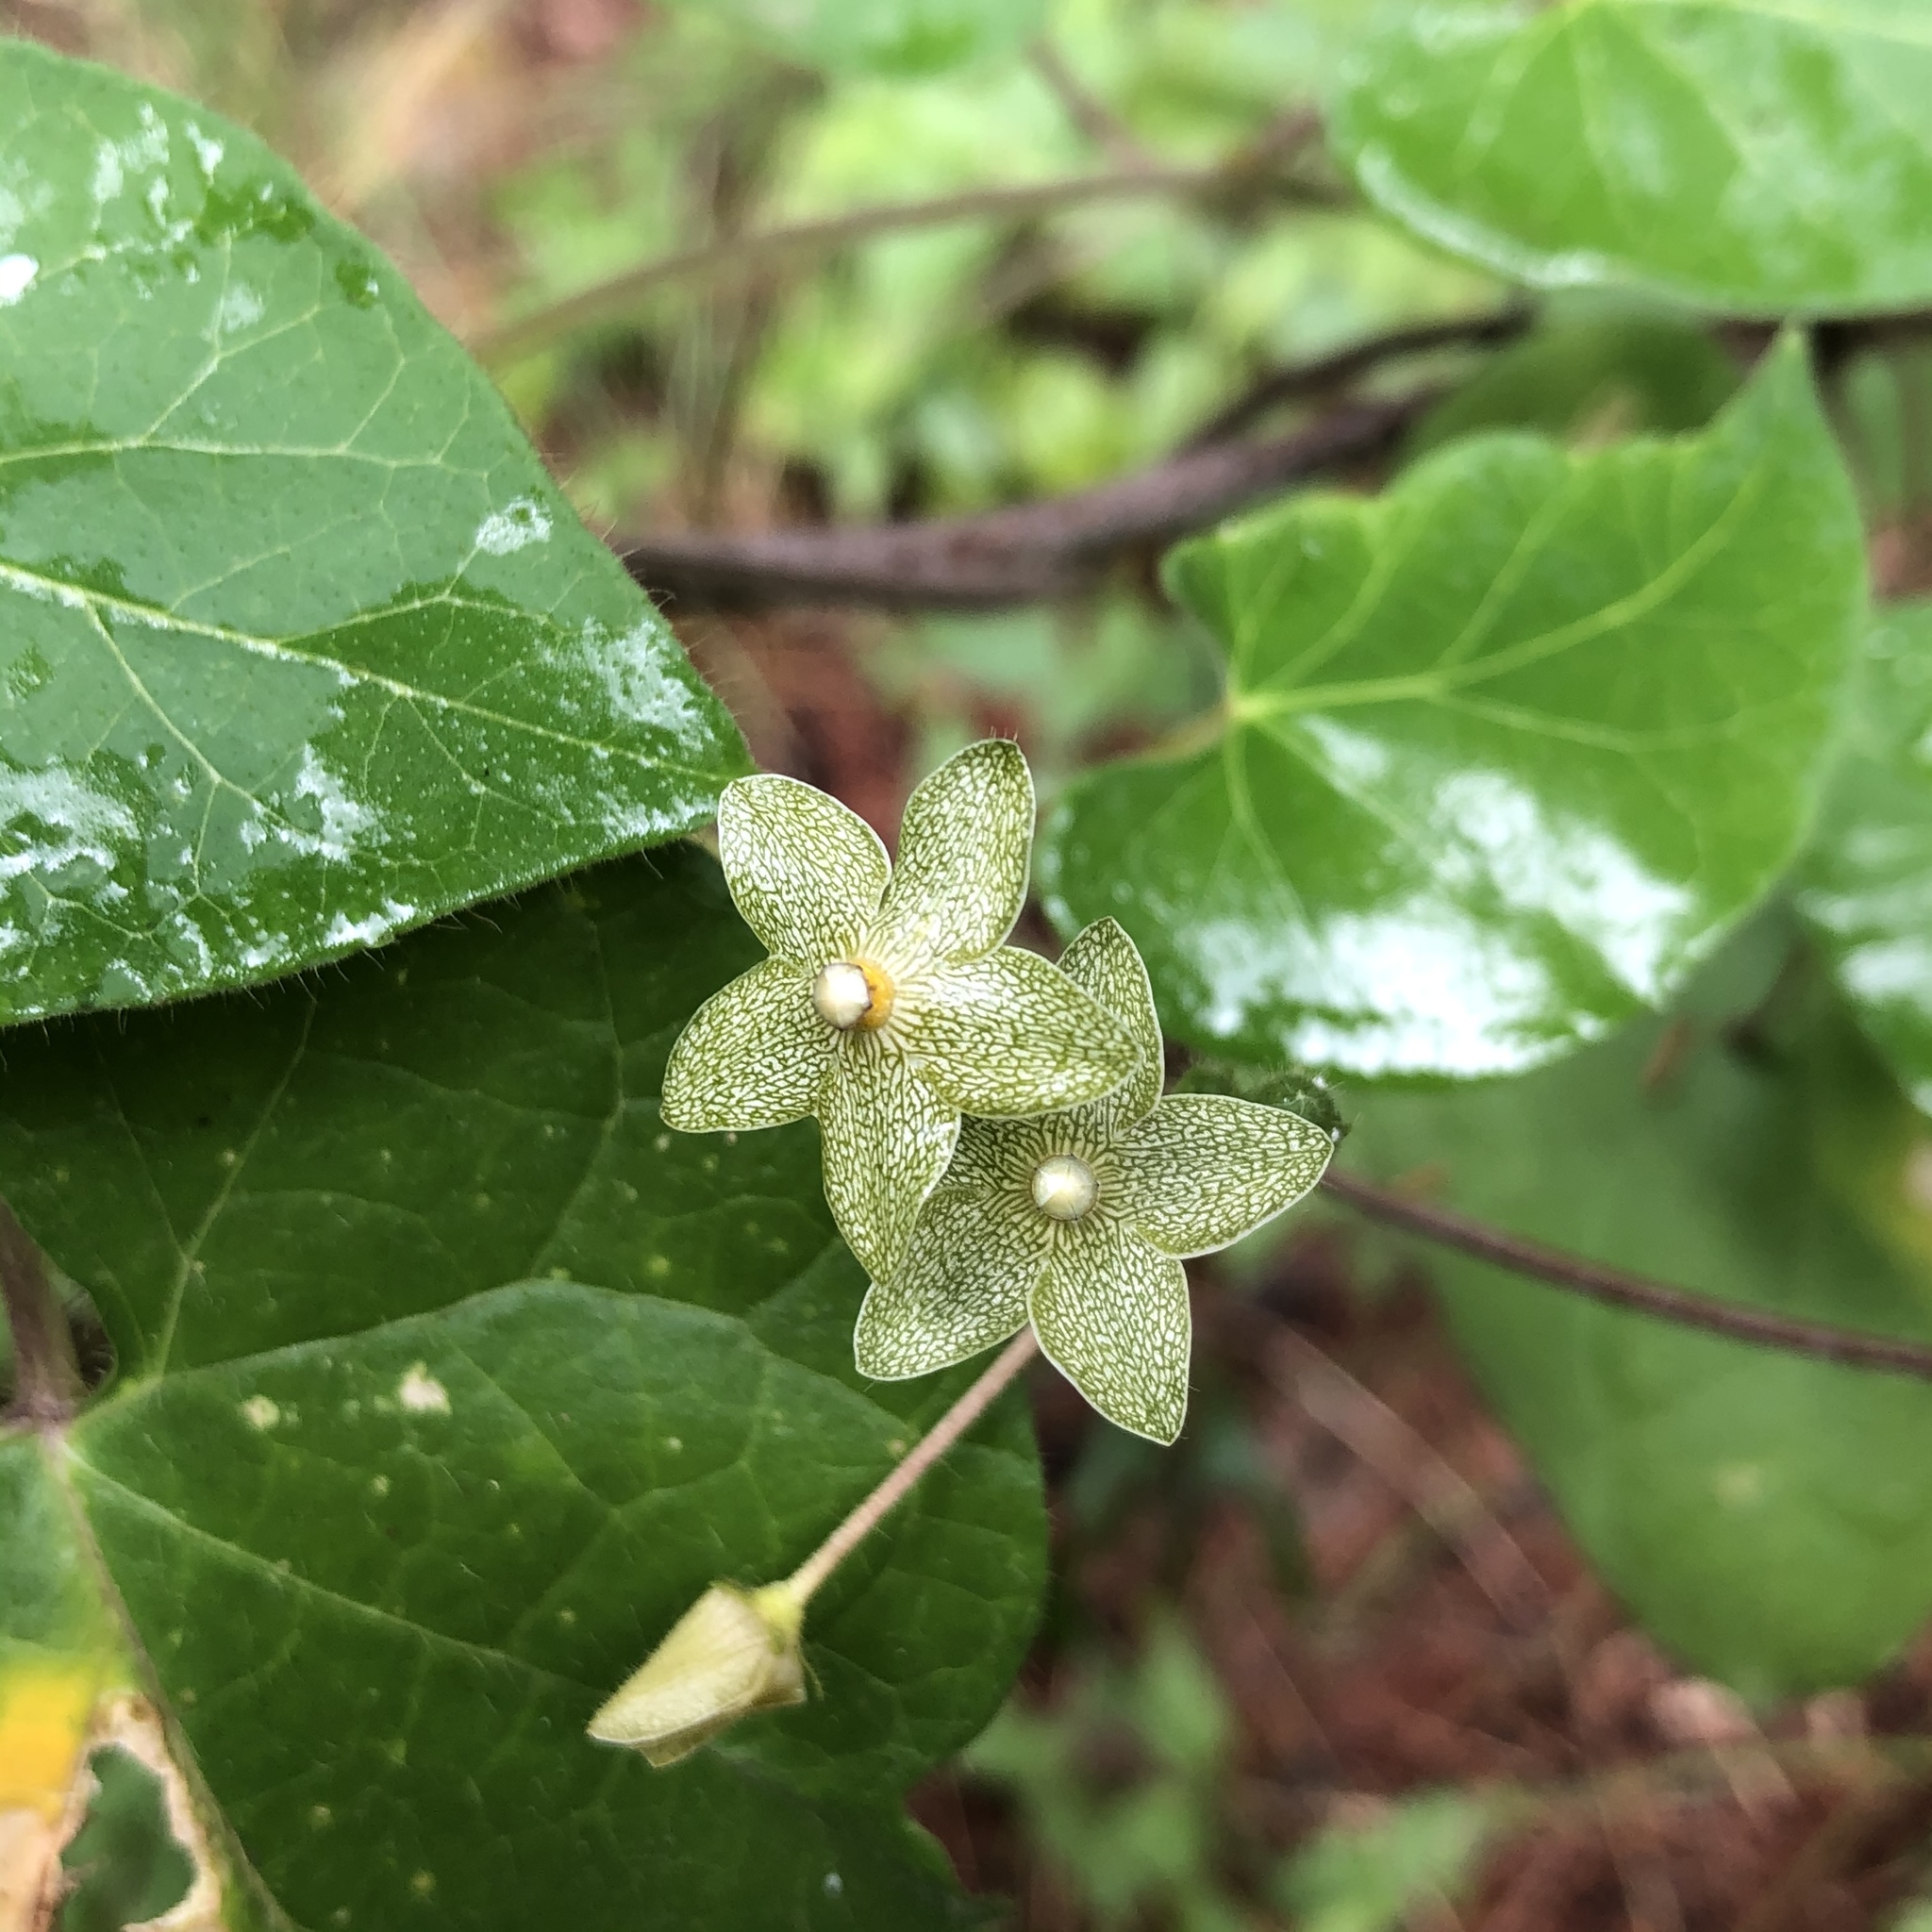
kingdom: Plantae
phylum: Tracheophyta
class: Magnoliopsida
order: Gentianales
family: Apocynaceae
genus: Dictyanthus
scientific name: Dictyanthus reticulatus
